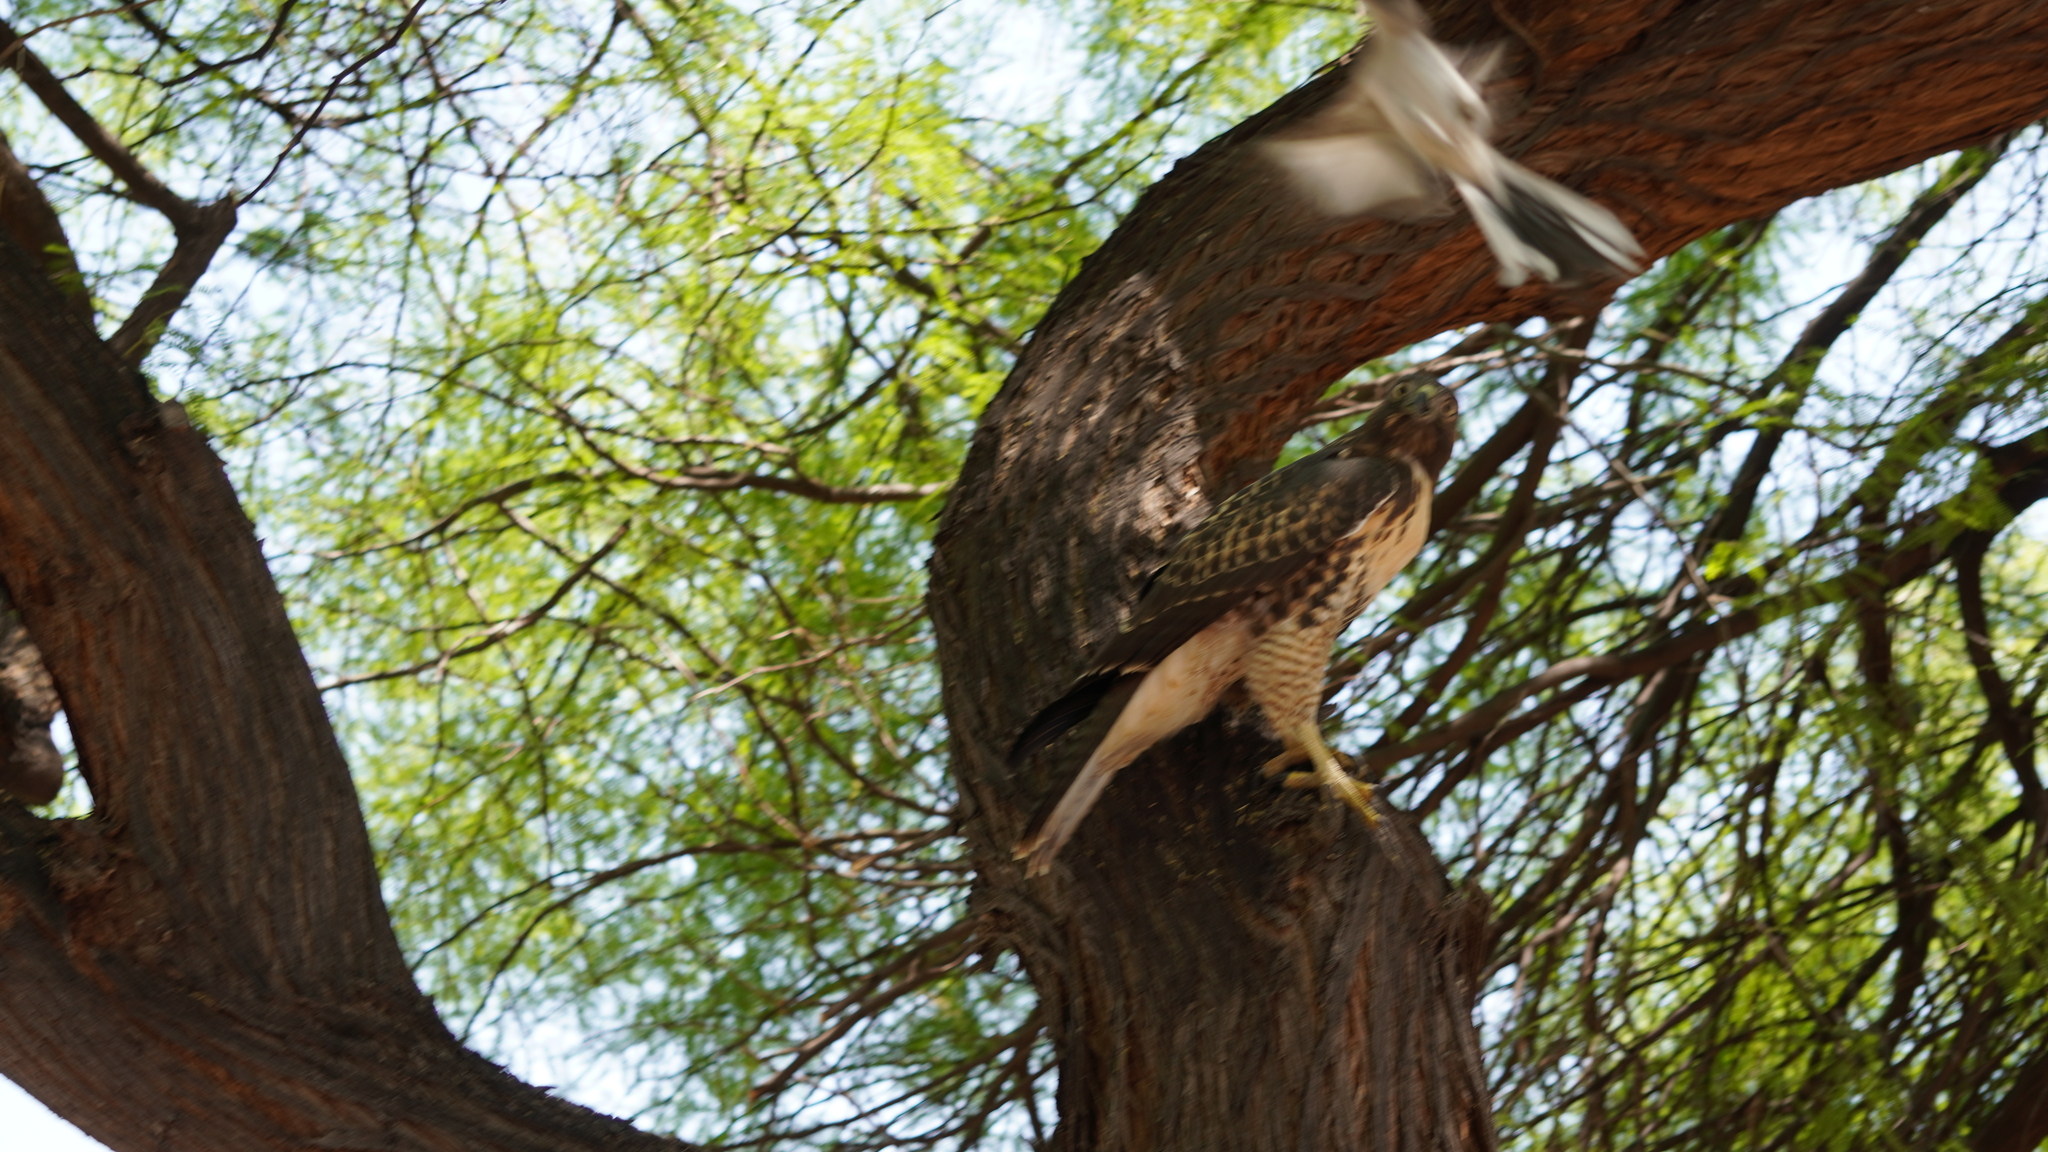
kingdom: Animalia
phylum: Chordata
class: Aves
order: Passeriformes
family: Mimidae
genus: Mimus
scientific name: Mimus polyglottos
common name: Northern mockingbird
